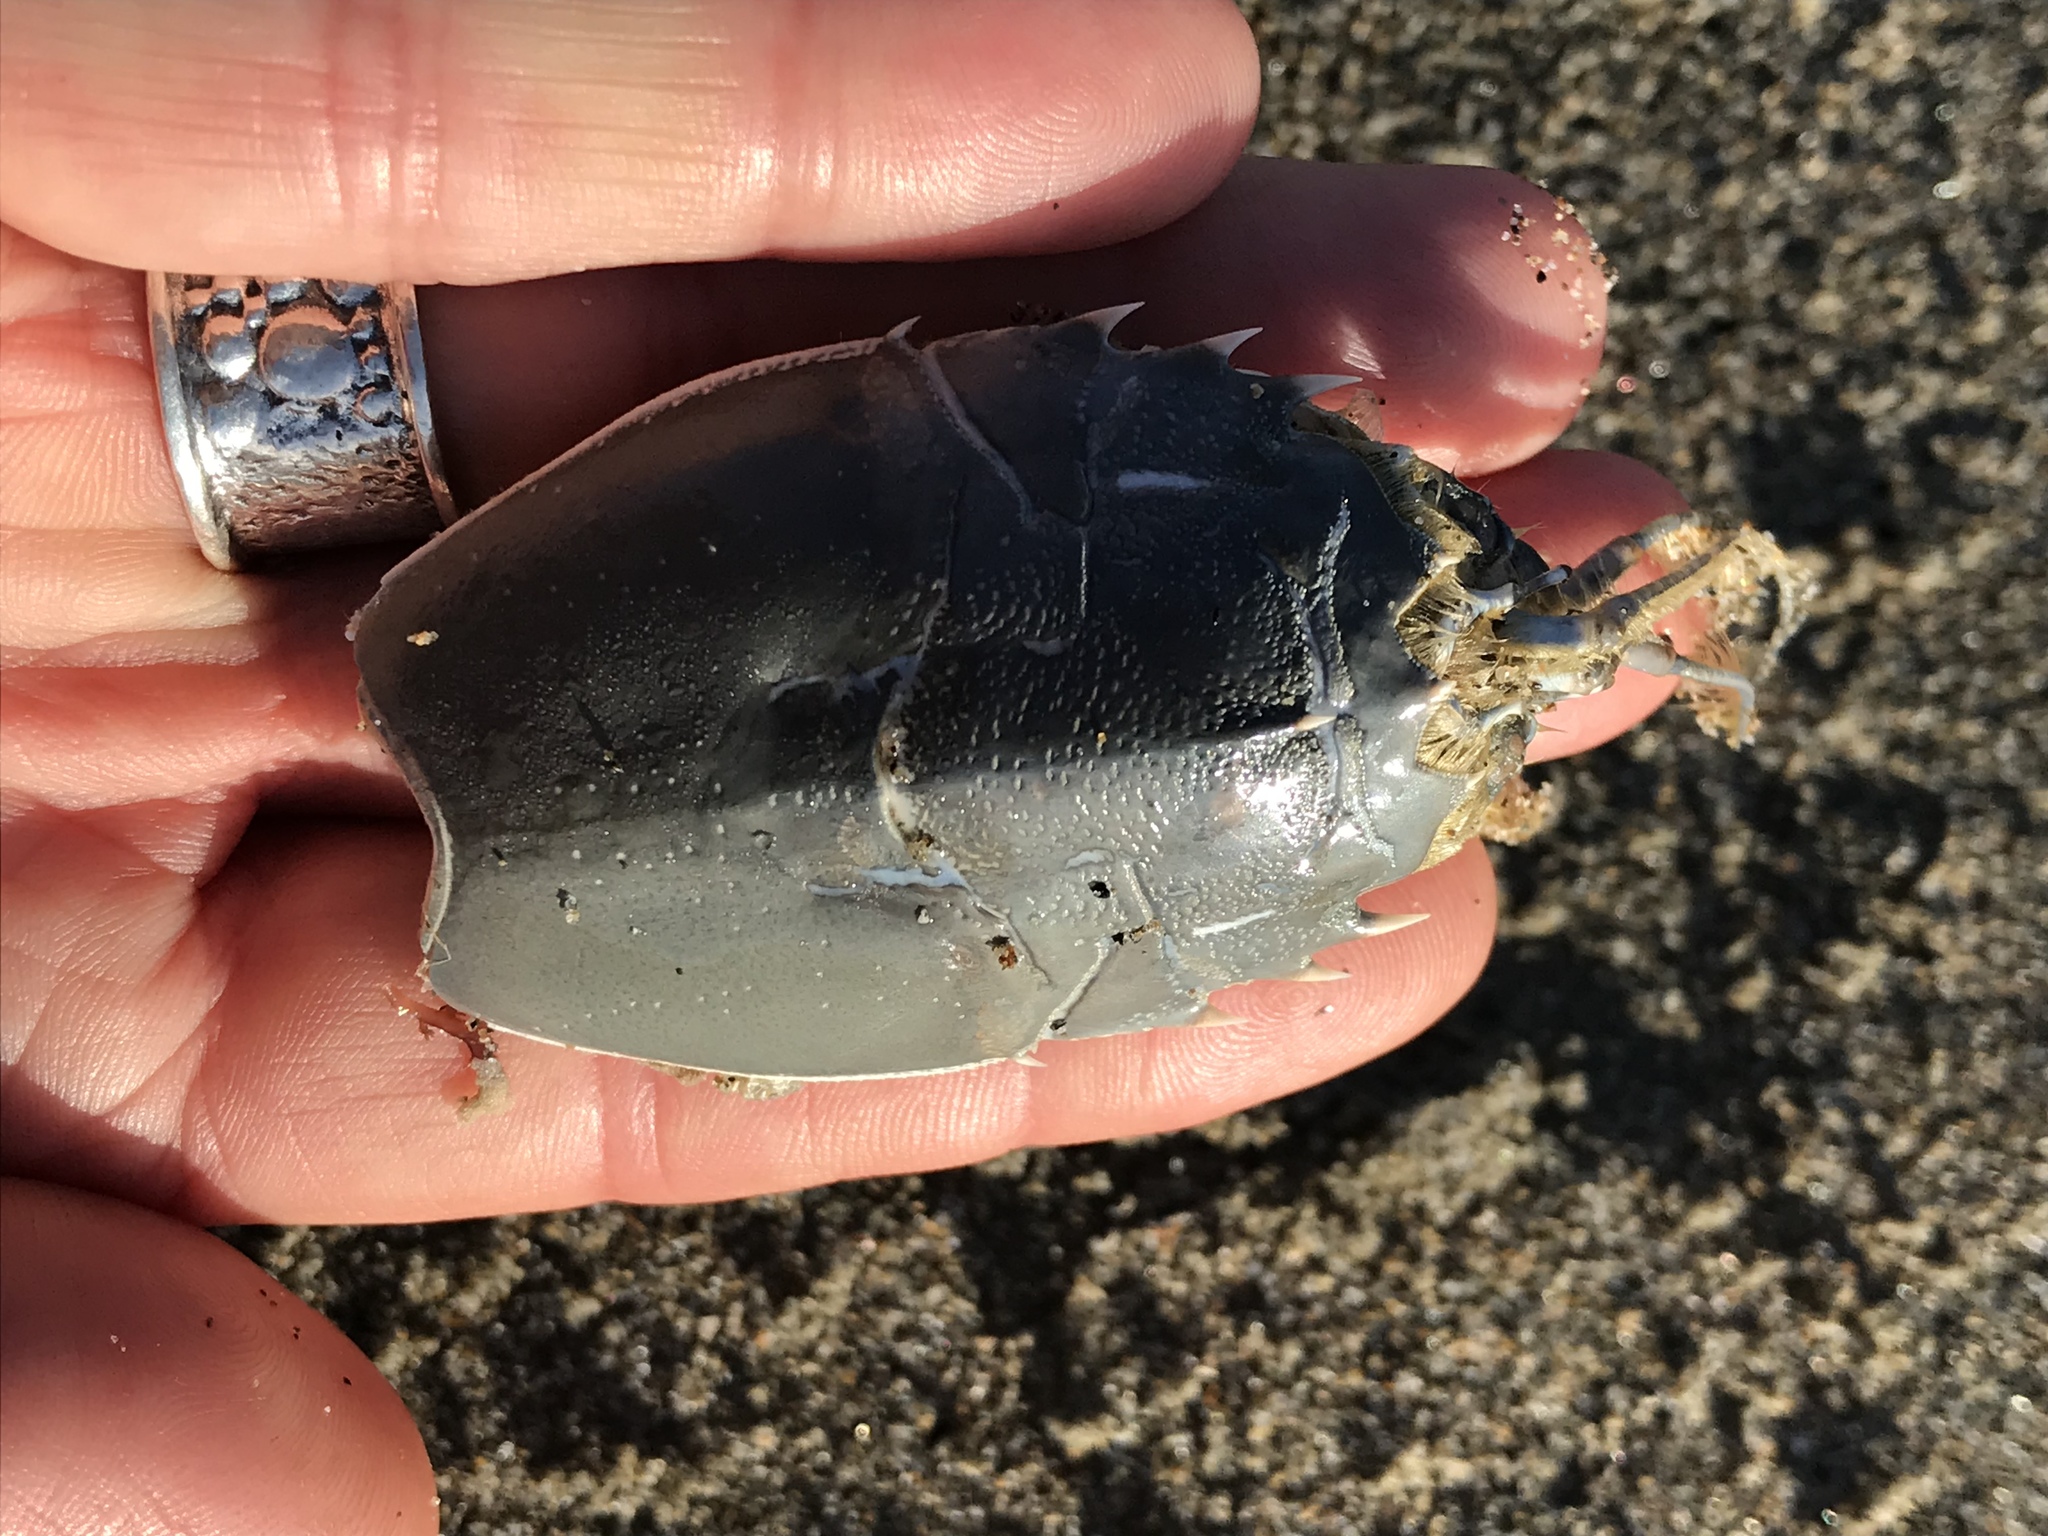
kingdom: Animalia
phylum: Arthropoda
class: Malacostraca
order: Decapoda
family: Blepharipodidae
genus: Blepharipoda
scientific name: Blepharipoda occidentalis
